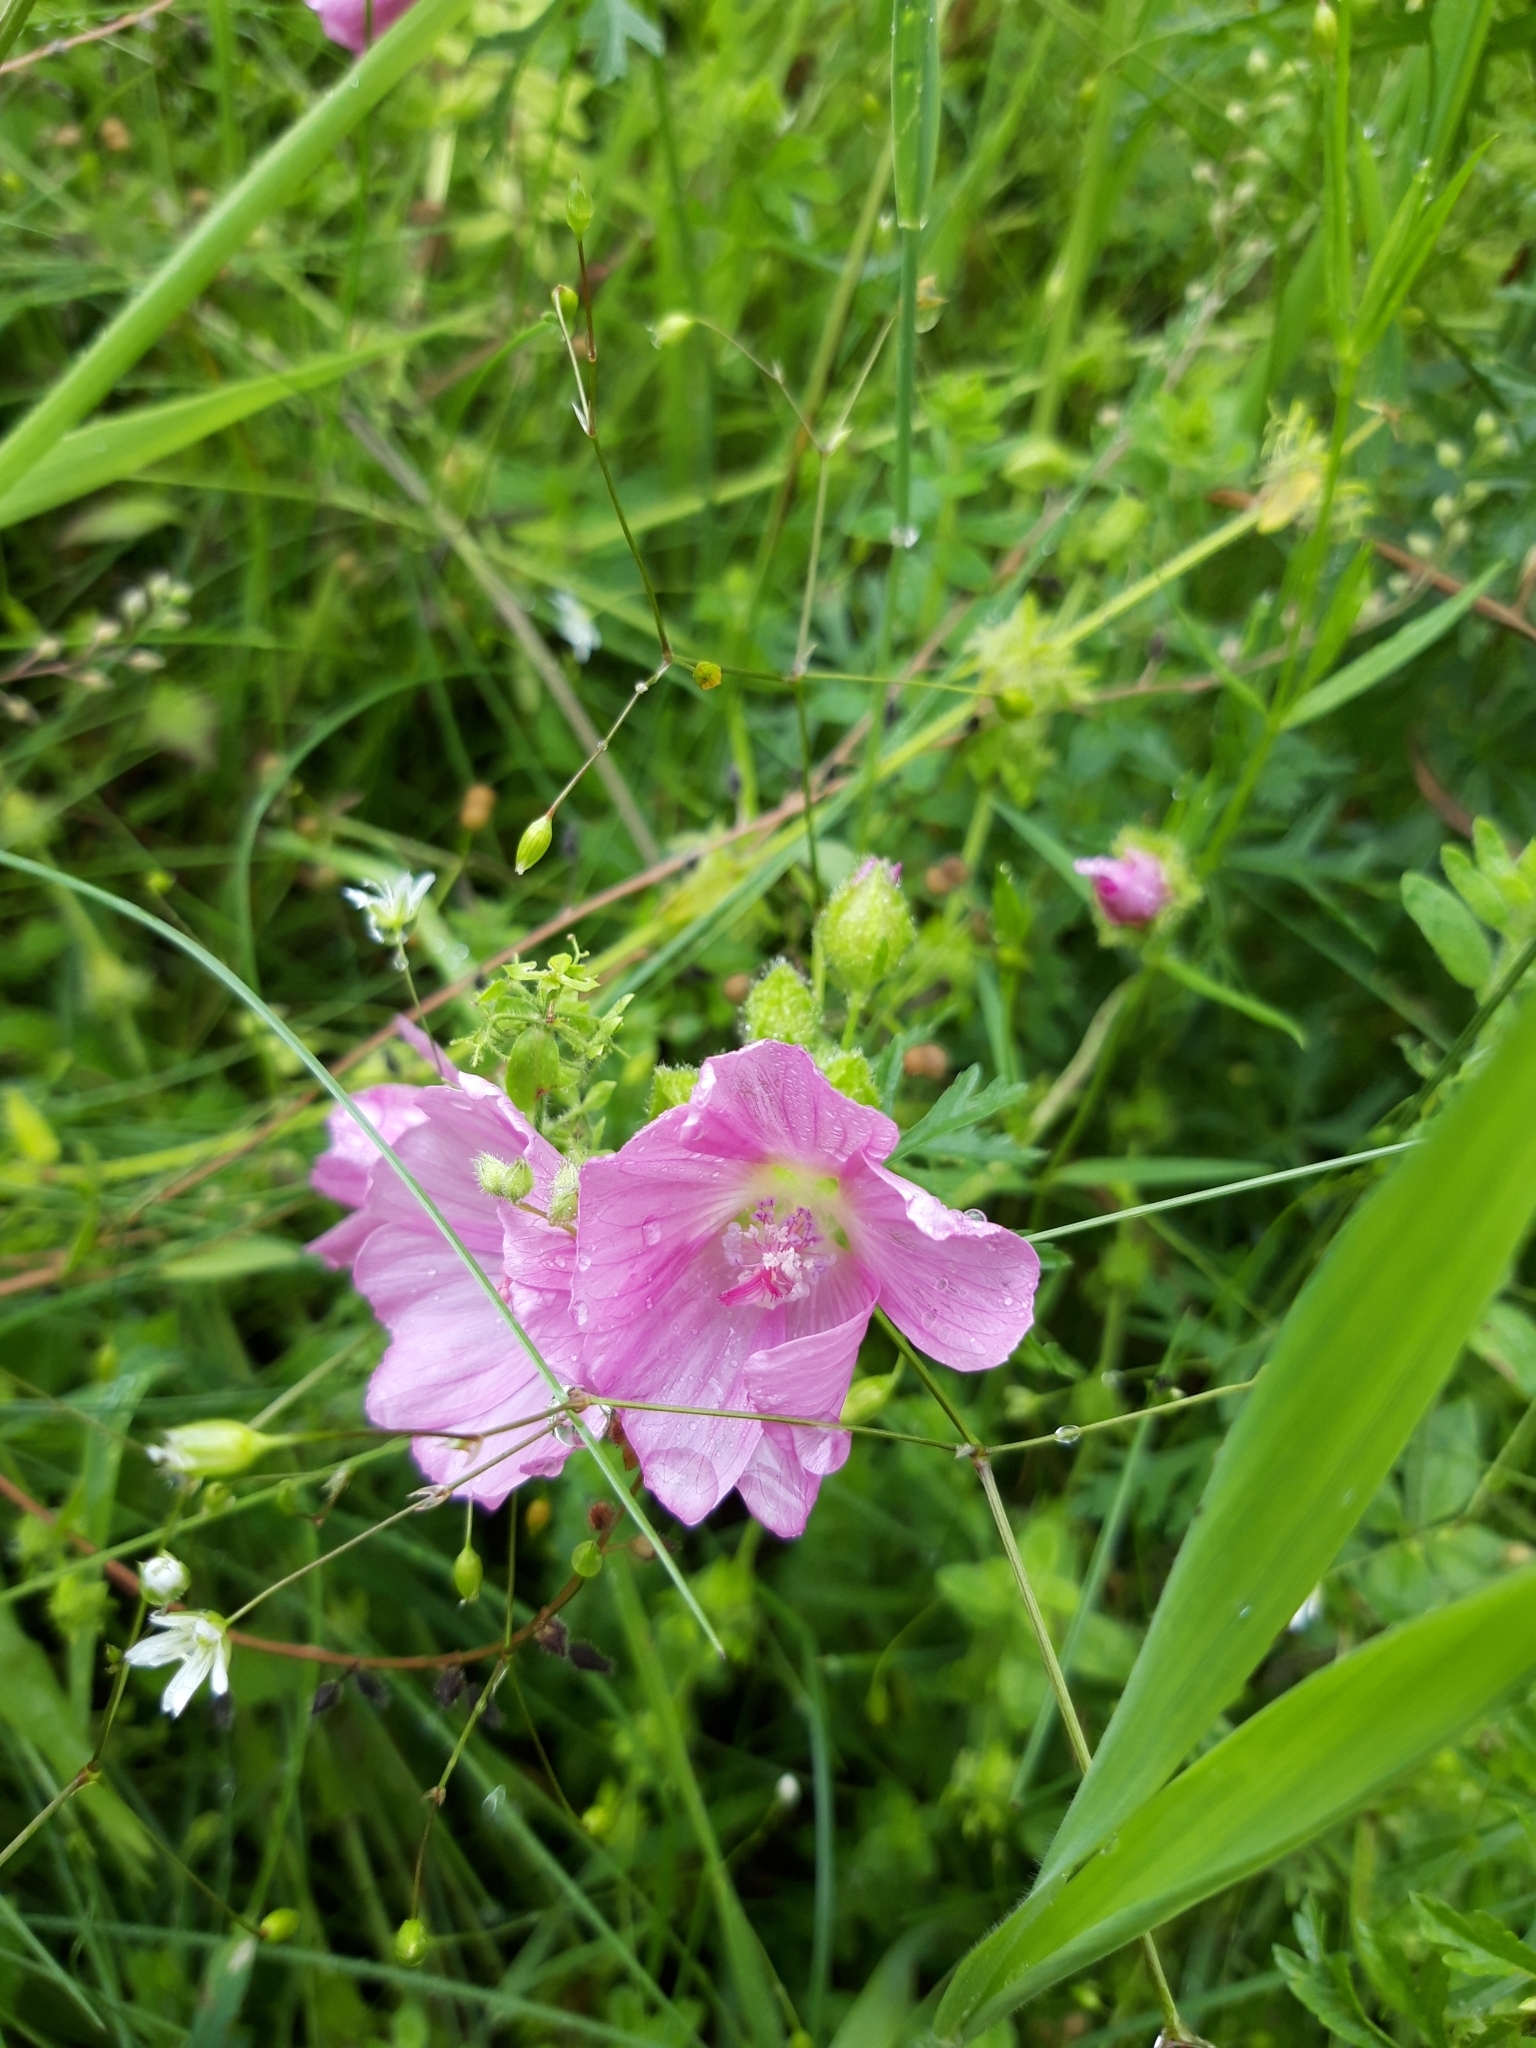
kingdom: Plantae
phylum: Tracheophyta
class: Magnoliopsida
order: Malvales
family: Malvaceae
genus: Malva
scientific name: Malva moschata
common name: Musk mallow
